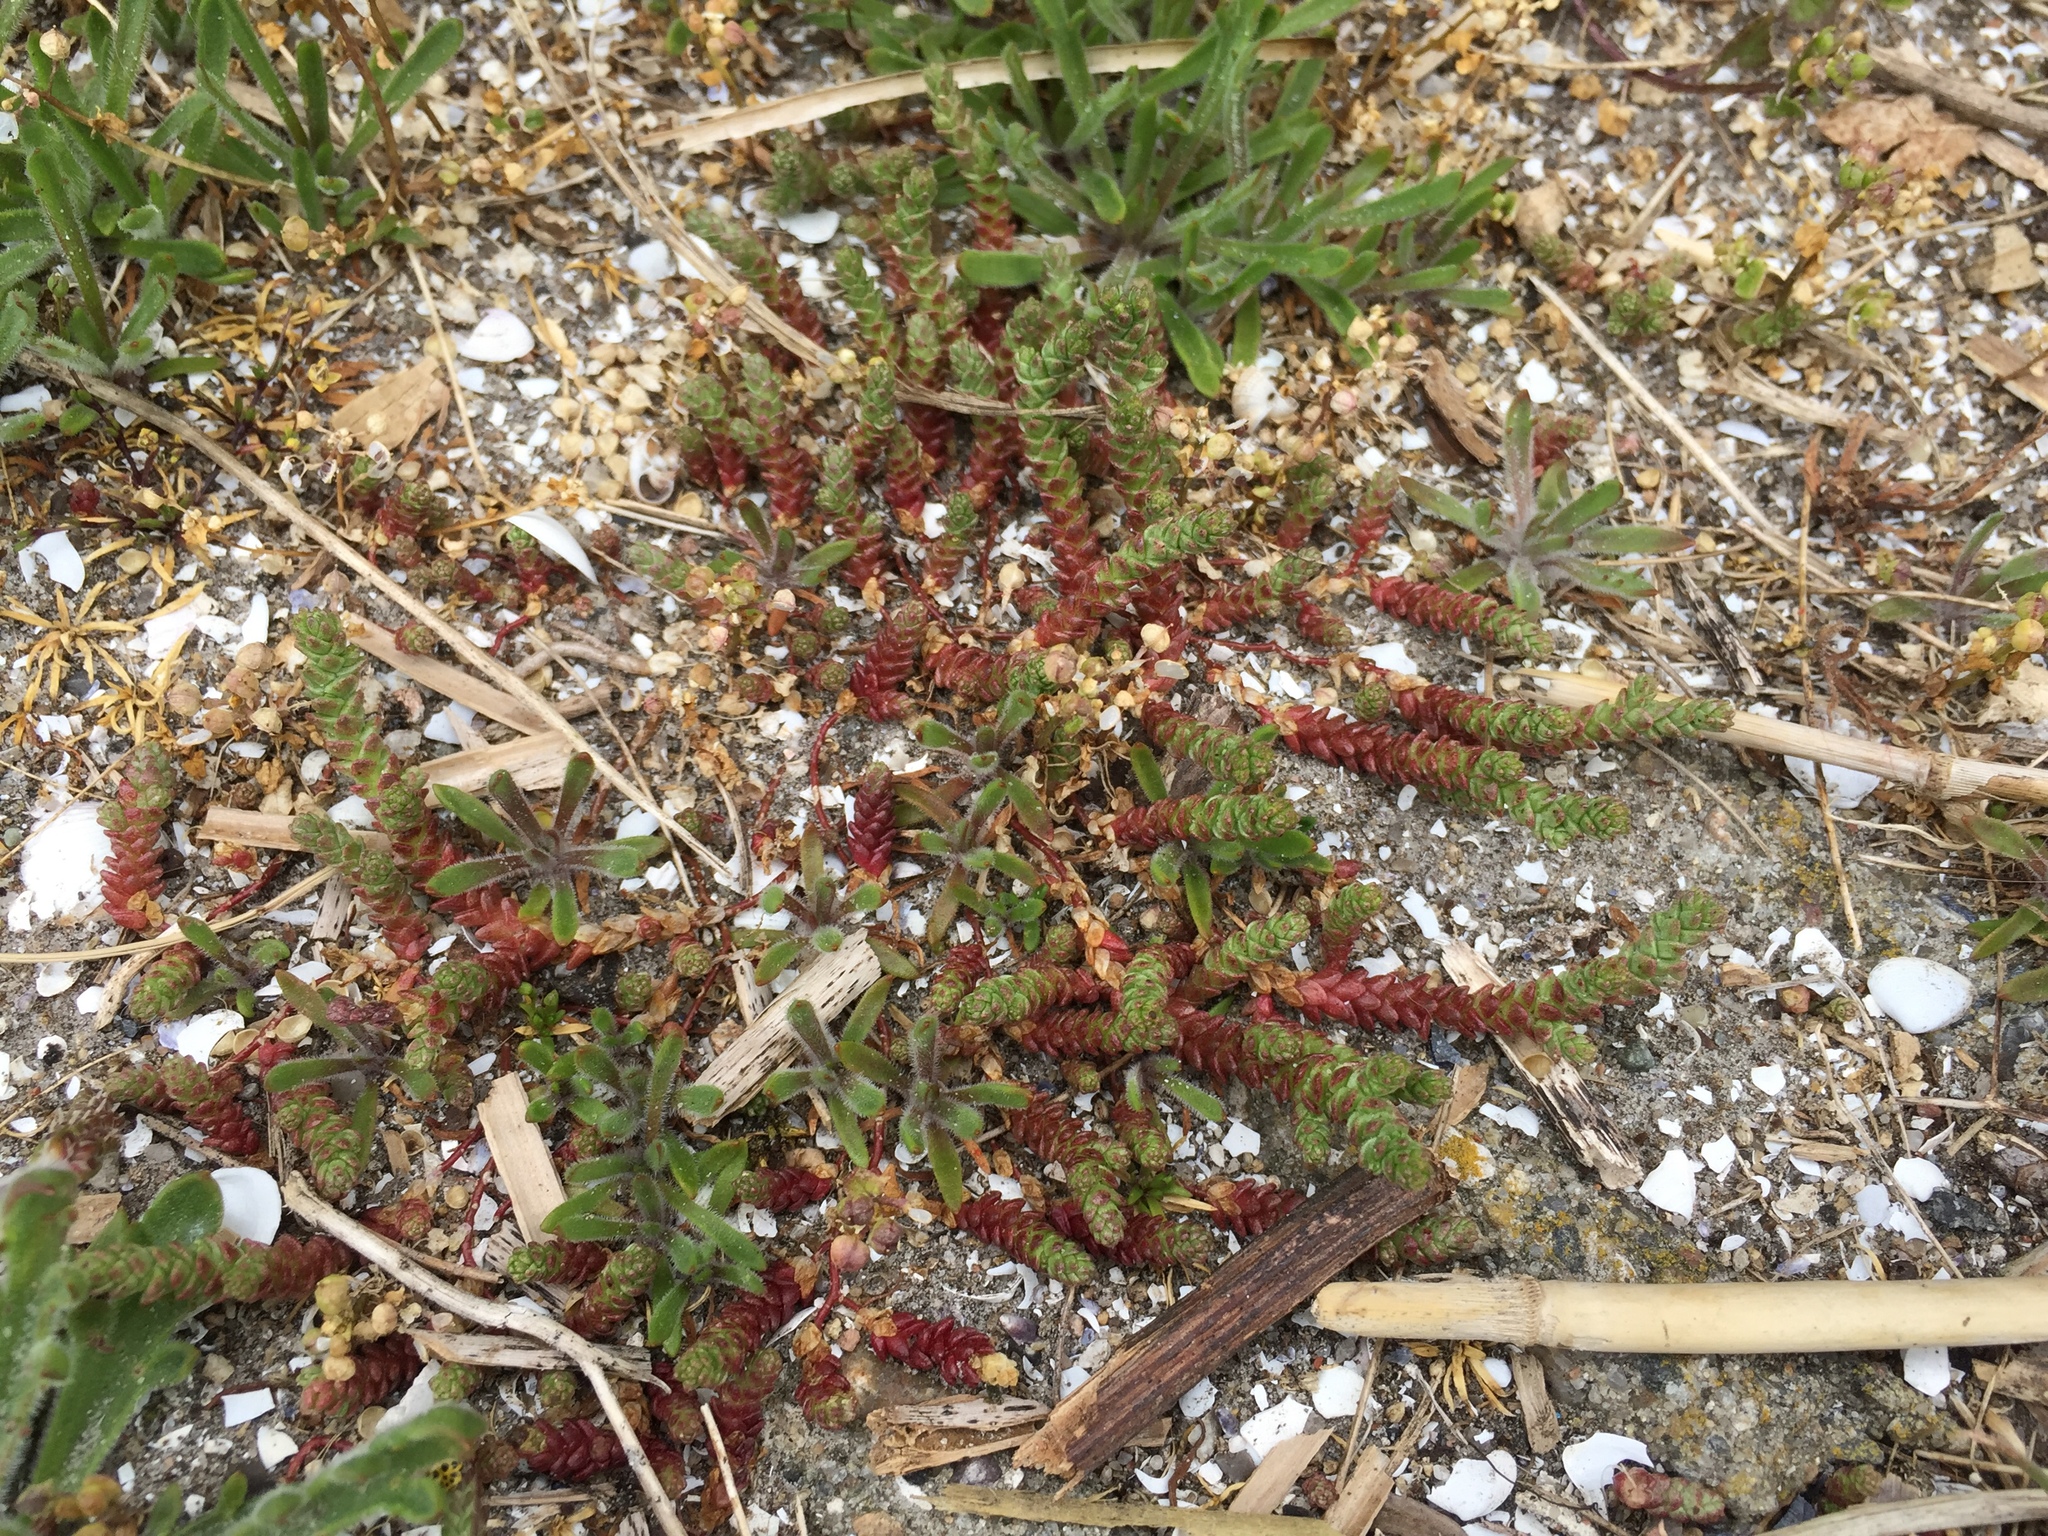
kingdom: Plantae
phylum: Tracheophyta
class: Magnoliopsida
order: Saxifragales
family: Crassulaceae
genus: Sedum
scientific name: Sedum acre
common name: Biting stonecrop
